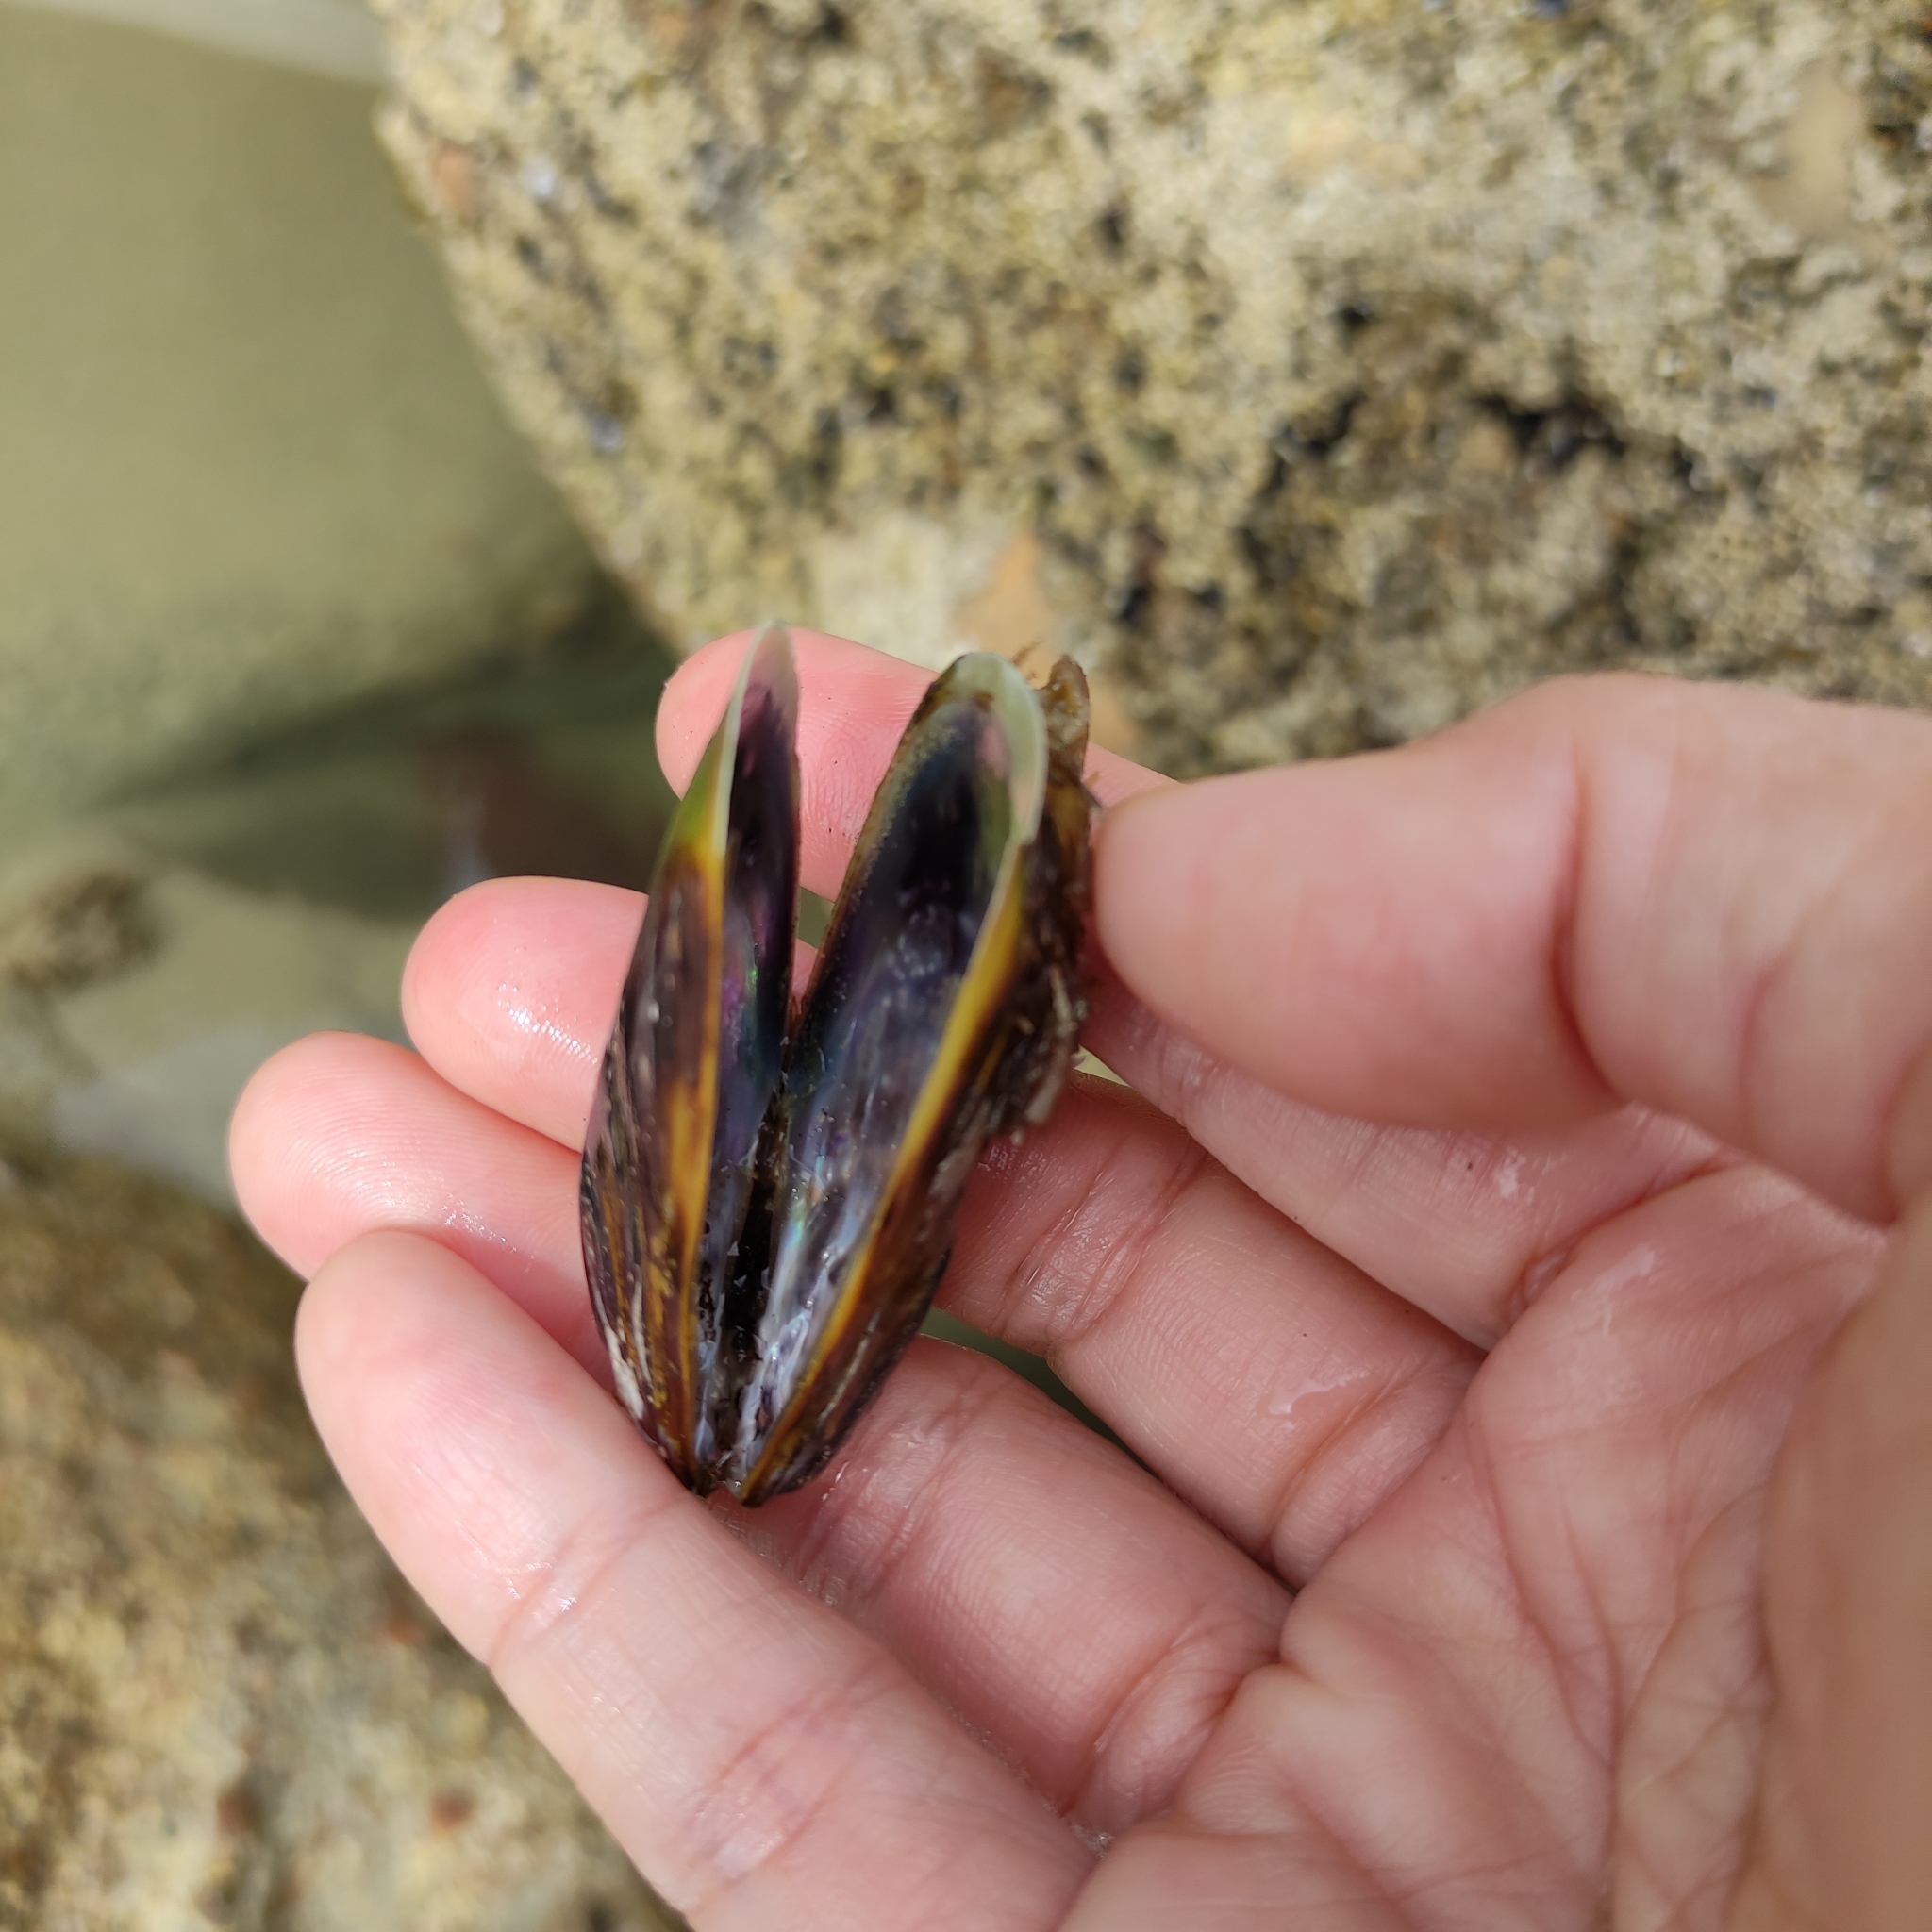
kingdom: Animalia
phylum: Mollusca
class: Bivalvia
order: Mytilida
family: Mytilidae
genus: Perna
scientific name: Perna canaliculus
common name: New zealand greenshelltm
